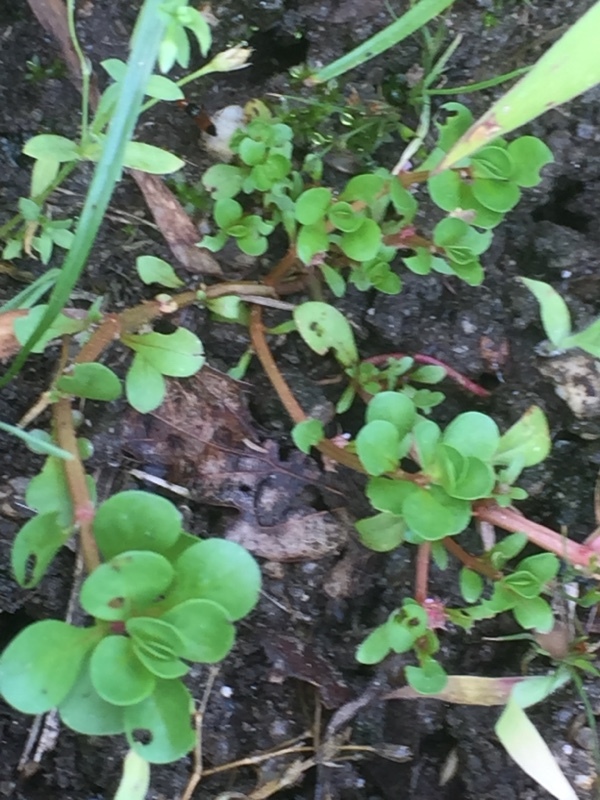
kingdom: Plantae
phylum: Tracheophyta
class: Magnoliopsida
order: Myrtales
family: Lythraceae
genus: Lythrum
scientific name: Lythrum portula
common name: Water purslane
